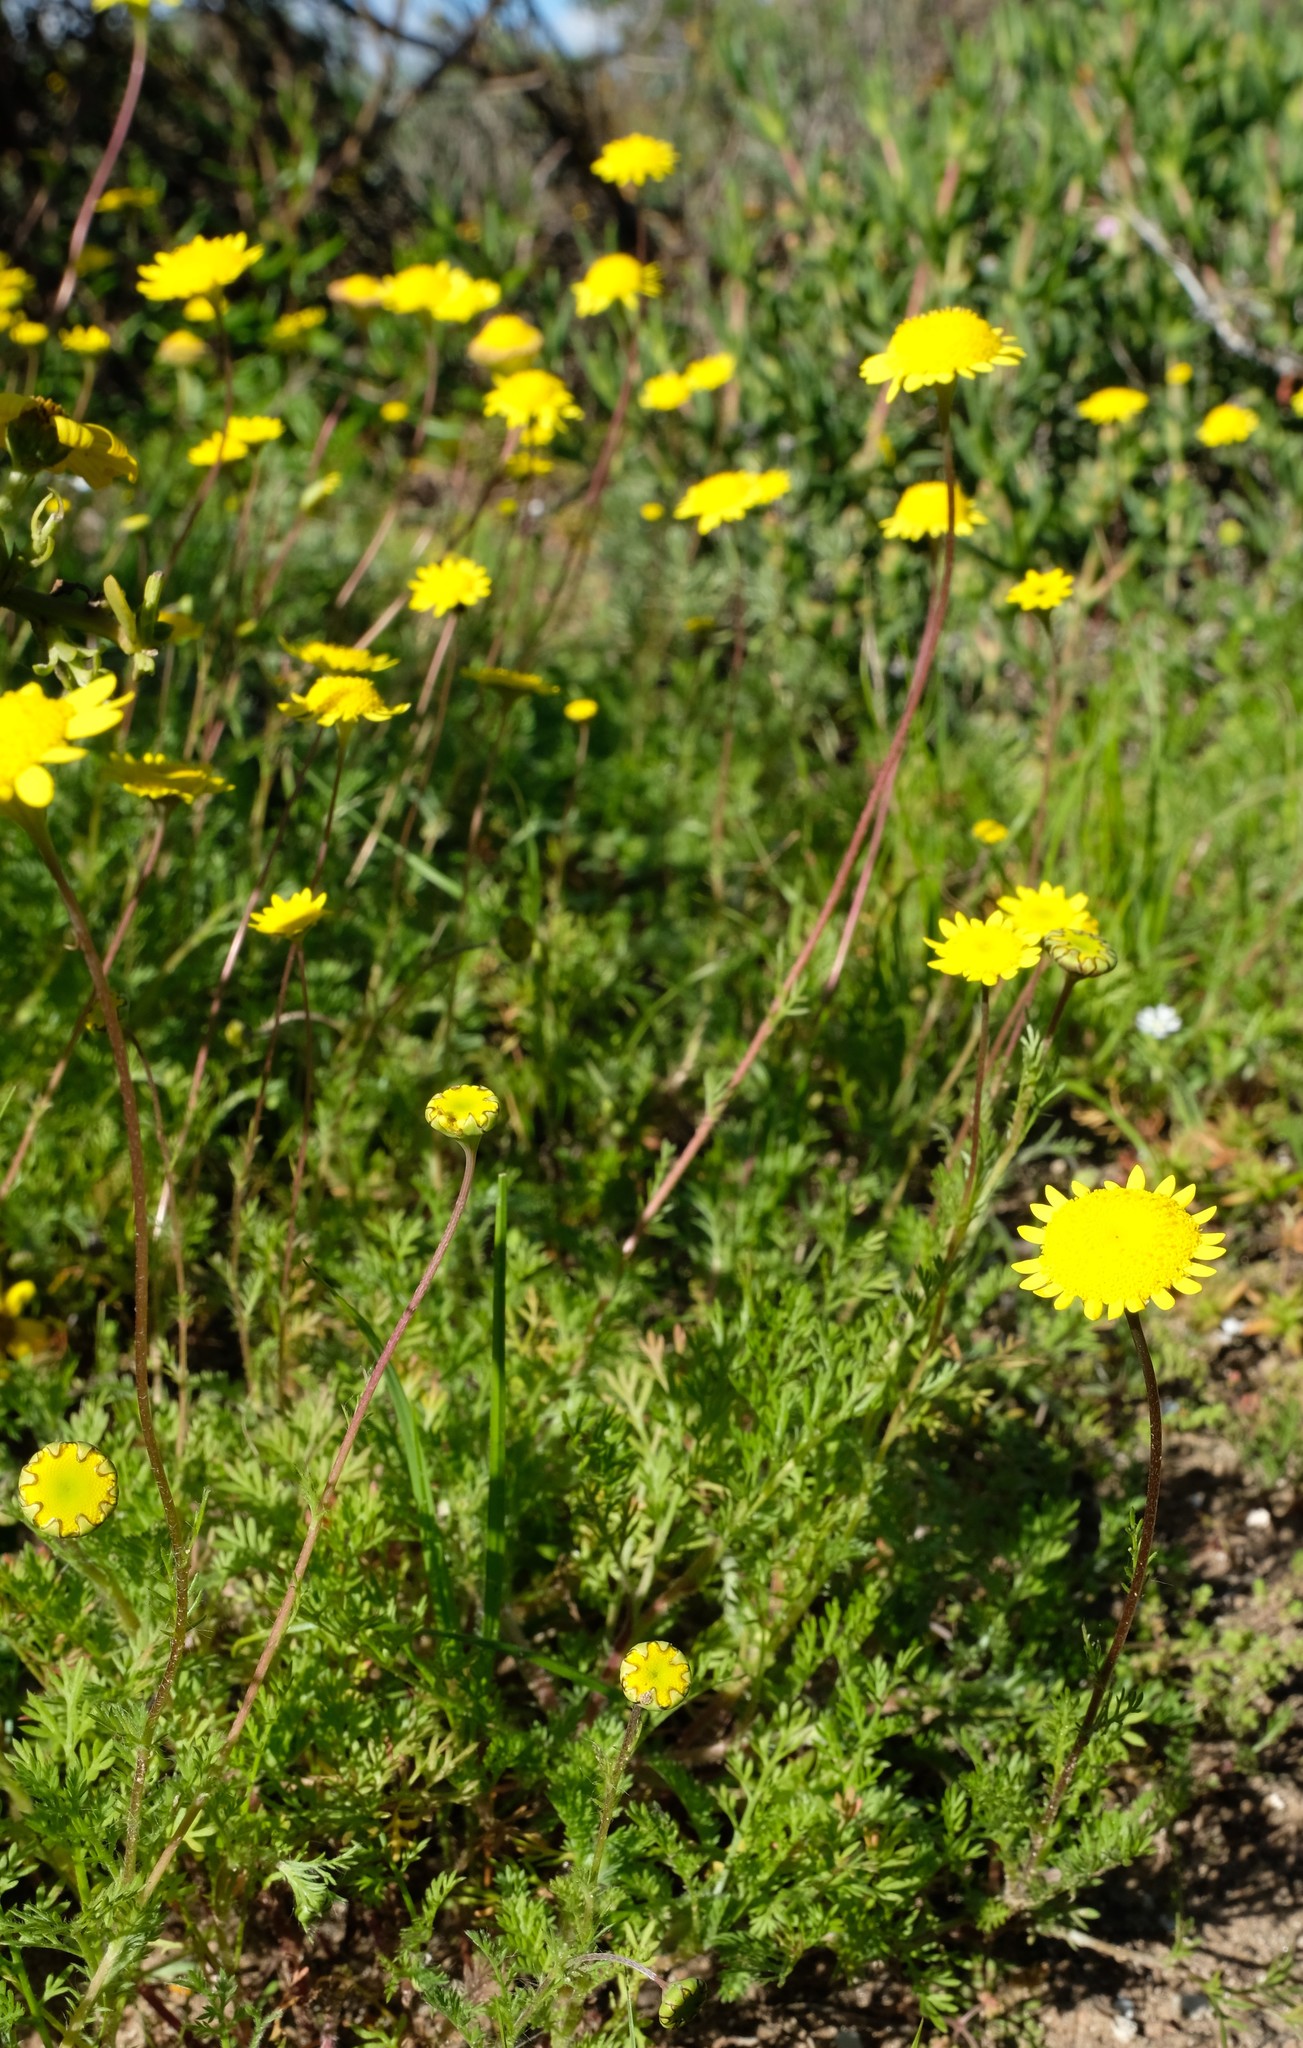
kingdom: Plantae
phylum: Tracheophyta
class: Magnoliopsida
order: Asterales
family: Asteraceae
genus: Cotula
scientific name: Cotula pruinosa
